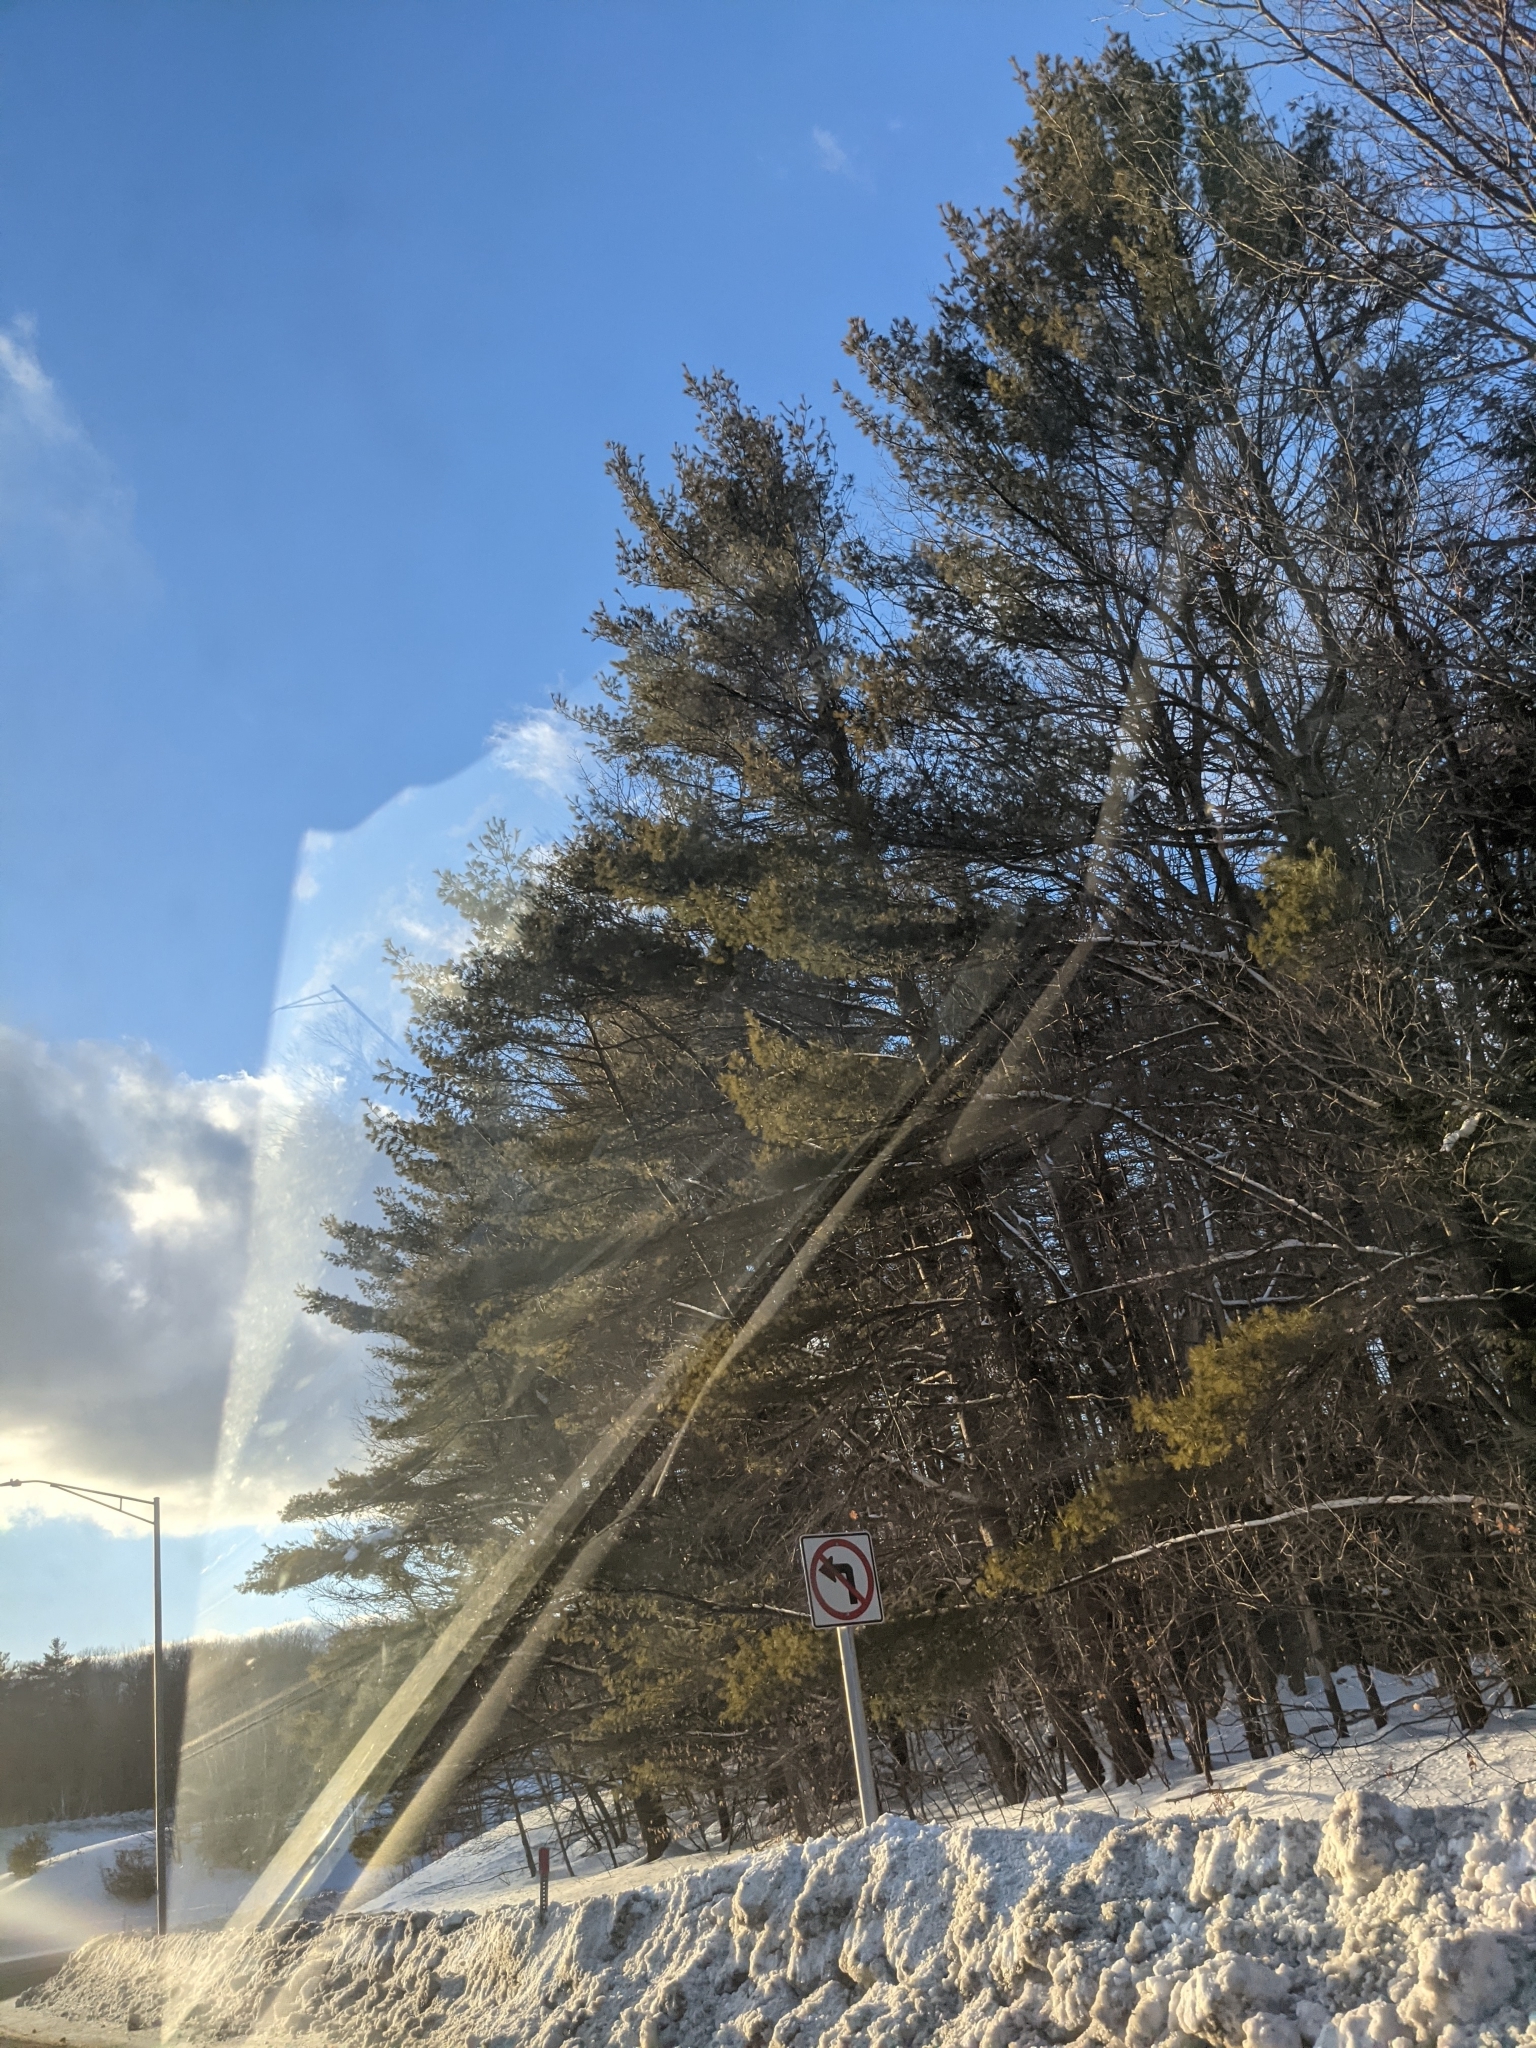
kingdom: Plantae
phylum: Tracheophyta
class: Pinopsida
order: Pinales
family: Pinaceae
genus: Pinus
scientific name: Pinus strobus
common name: Weymouth pine
